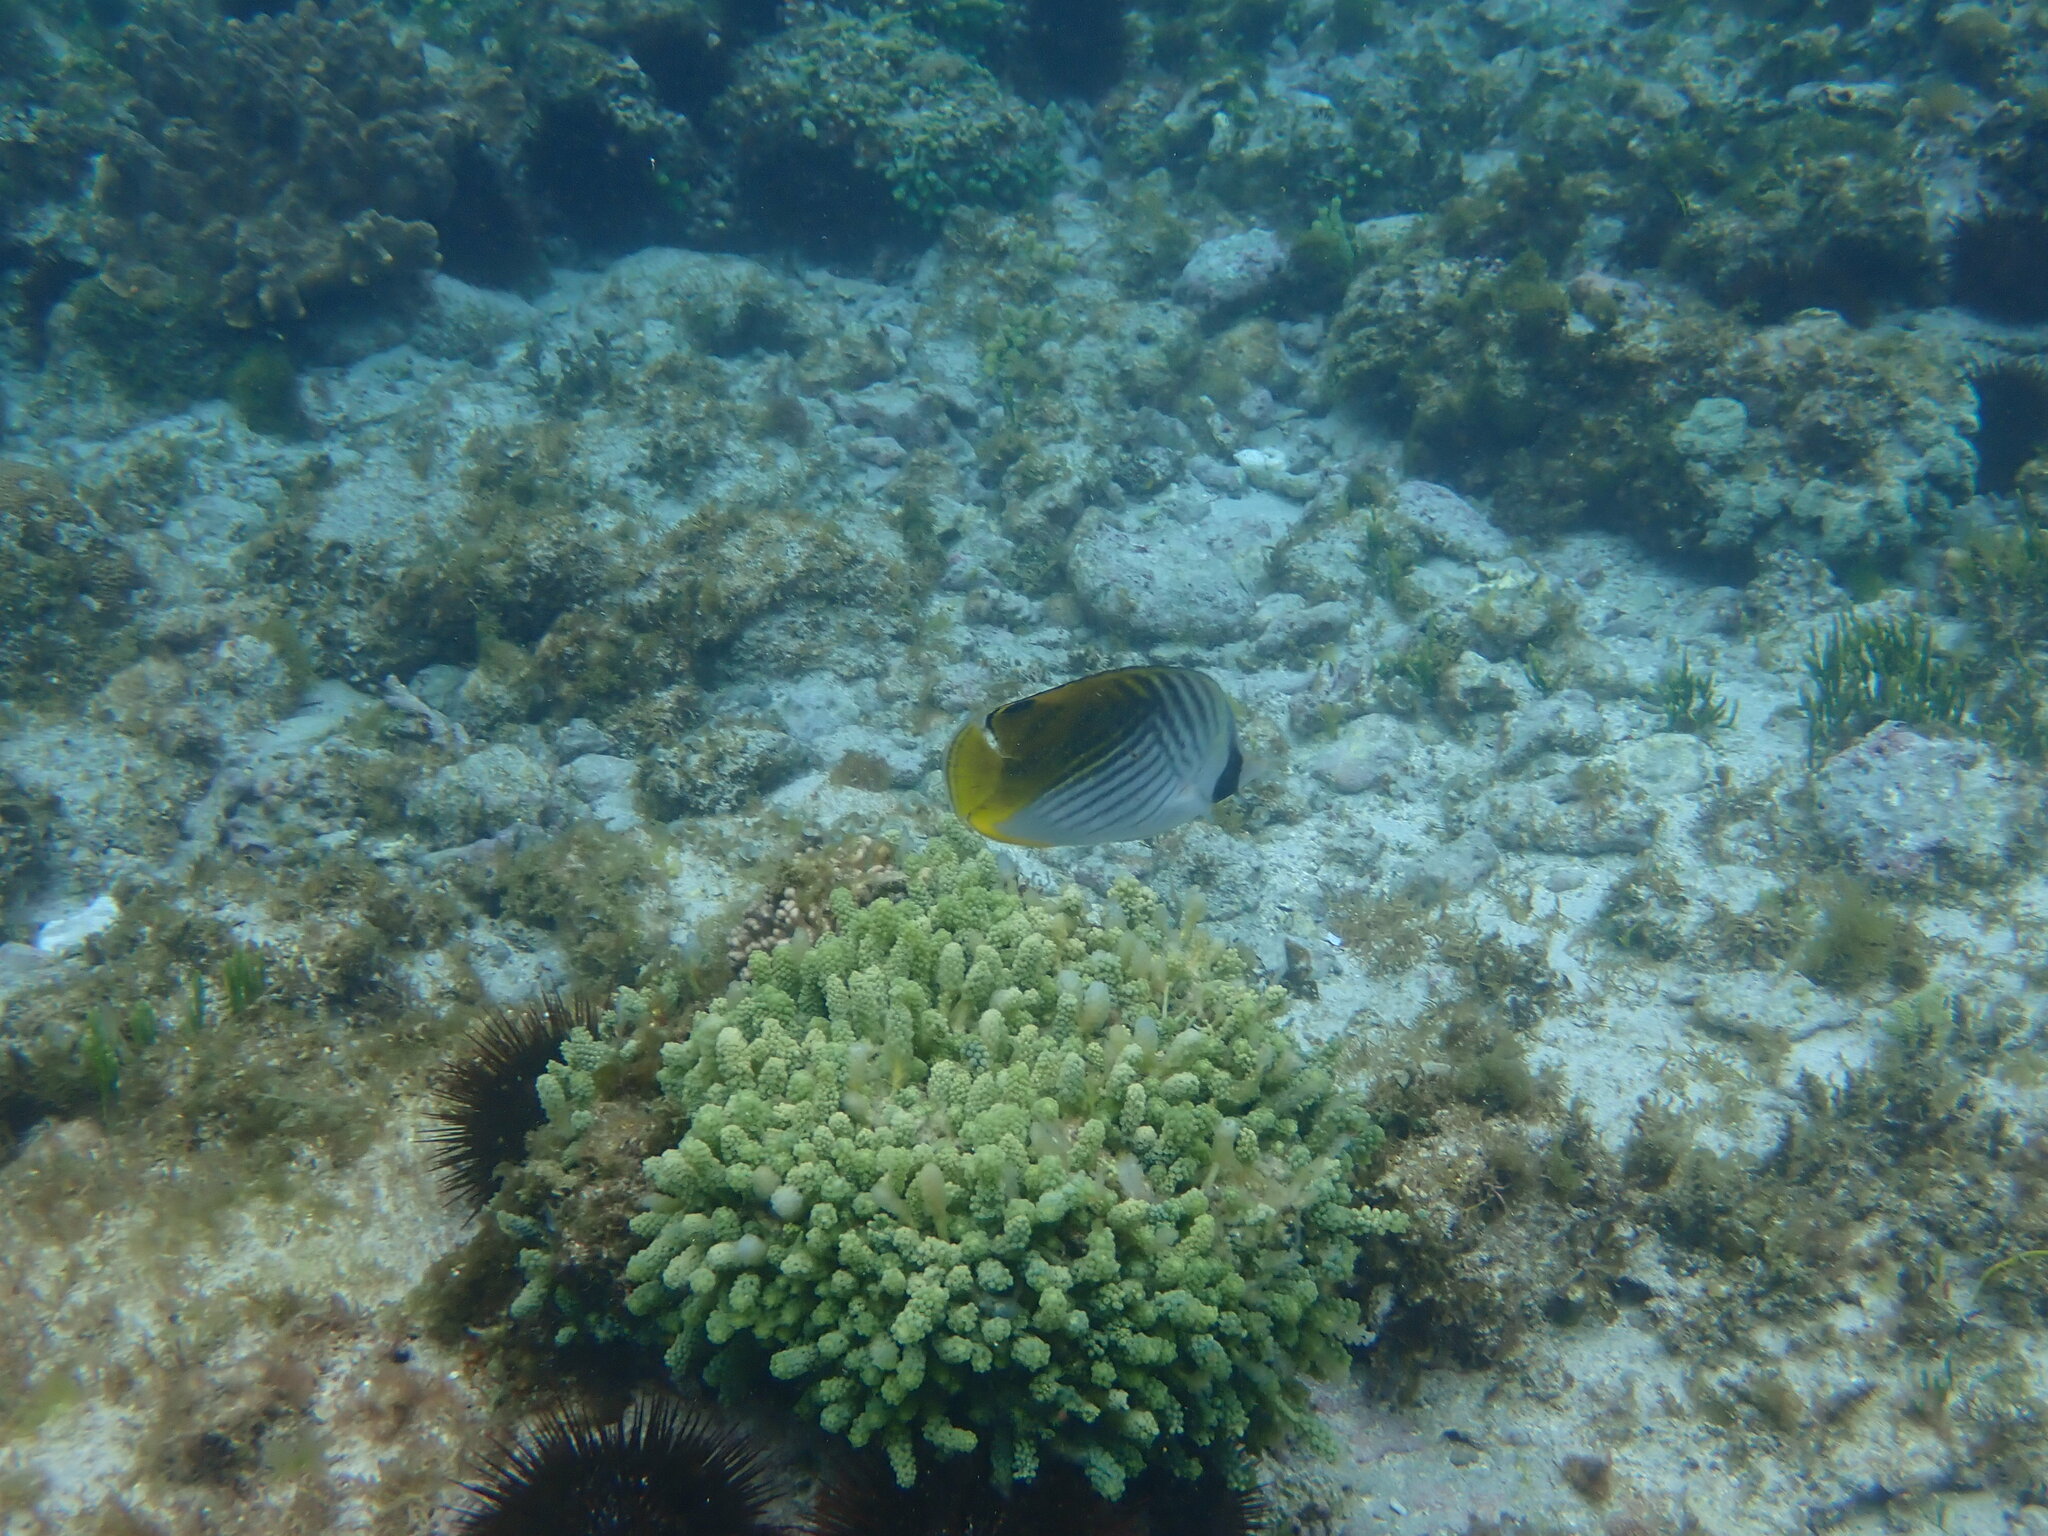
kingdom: Animalia
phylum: Chordata
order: Perciformes
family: Chaetodontidae
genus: Chaetodon
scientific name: Chaetodon auriga
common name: Threadfin butterflyfish
